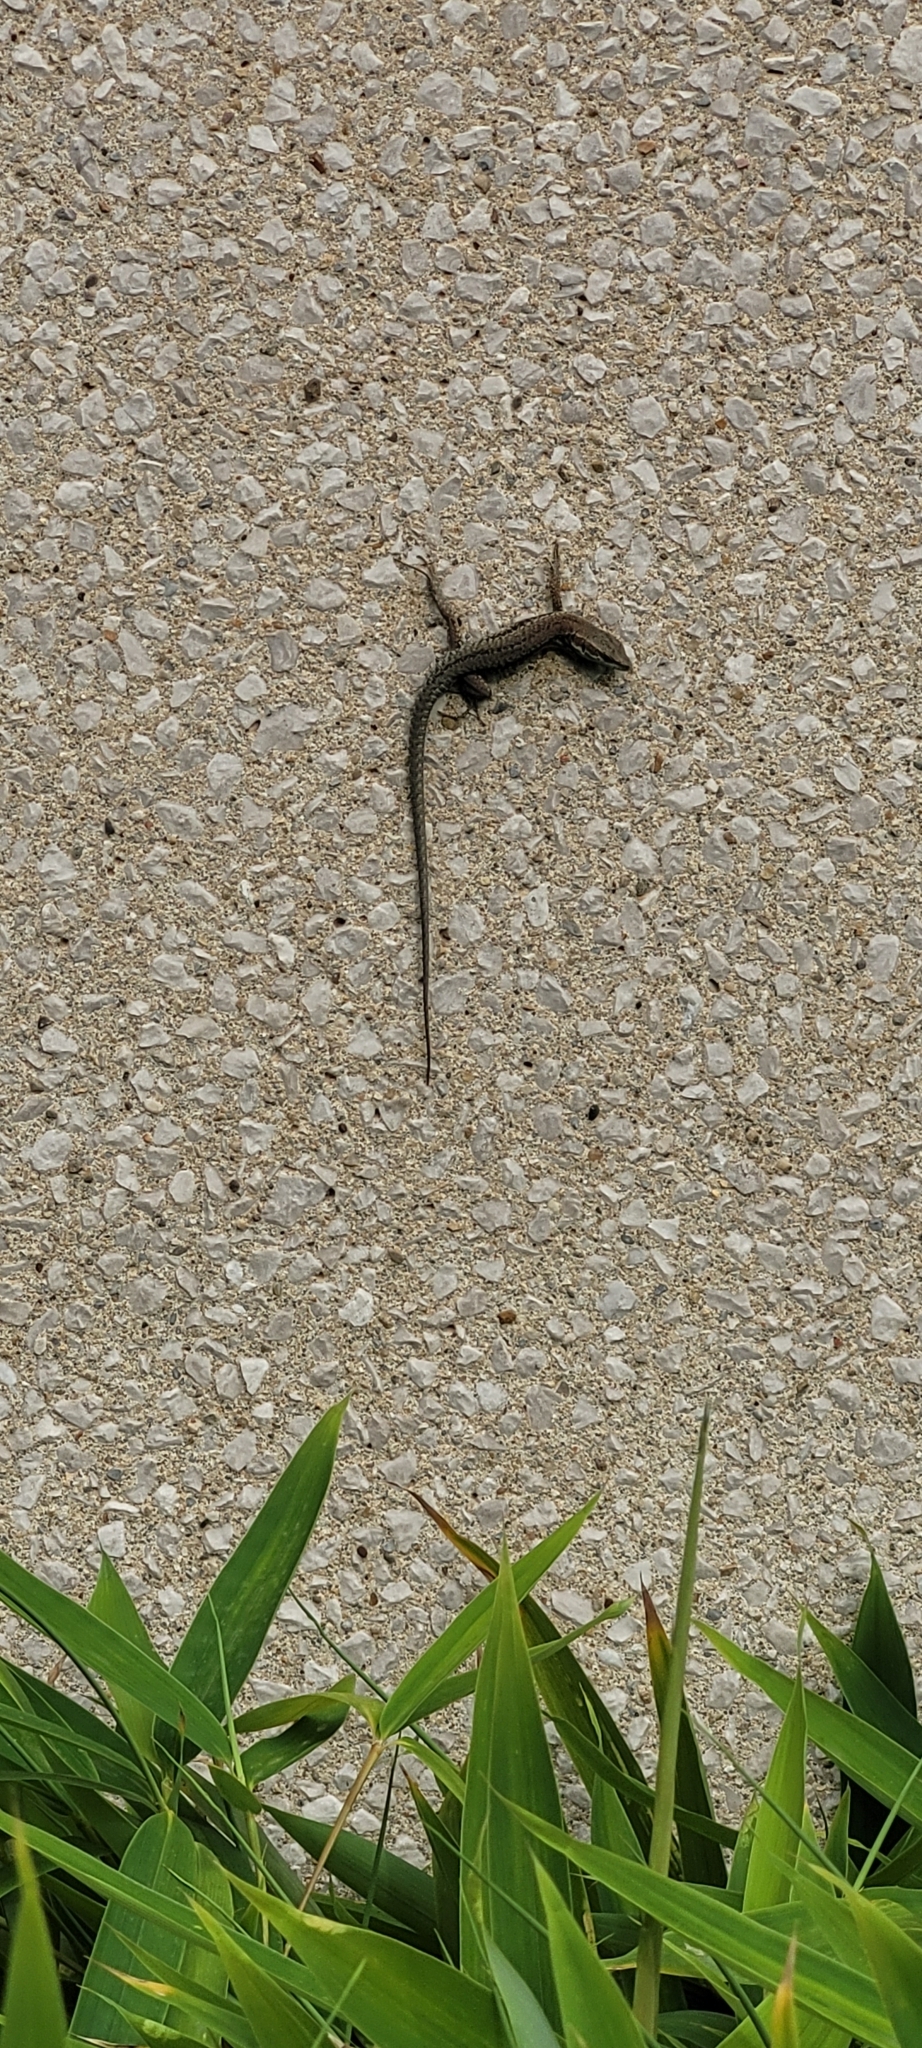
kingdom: Animalia
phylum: Chordata
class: Squamata
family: Lacertidae
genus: Podarcis
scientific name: Podarcis muralis
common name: Common wall lizard
